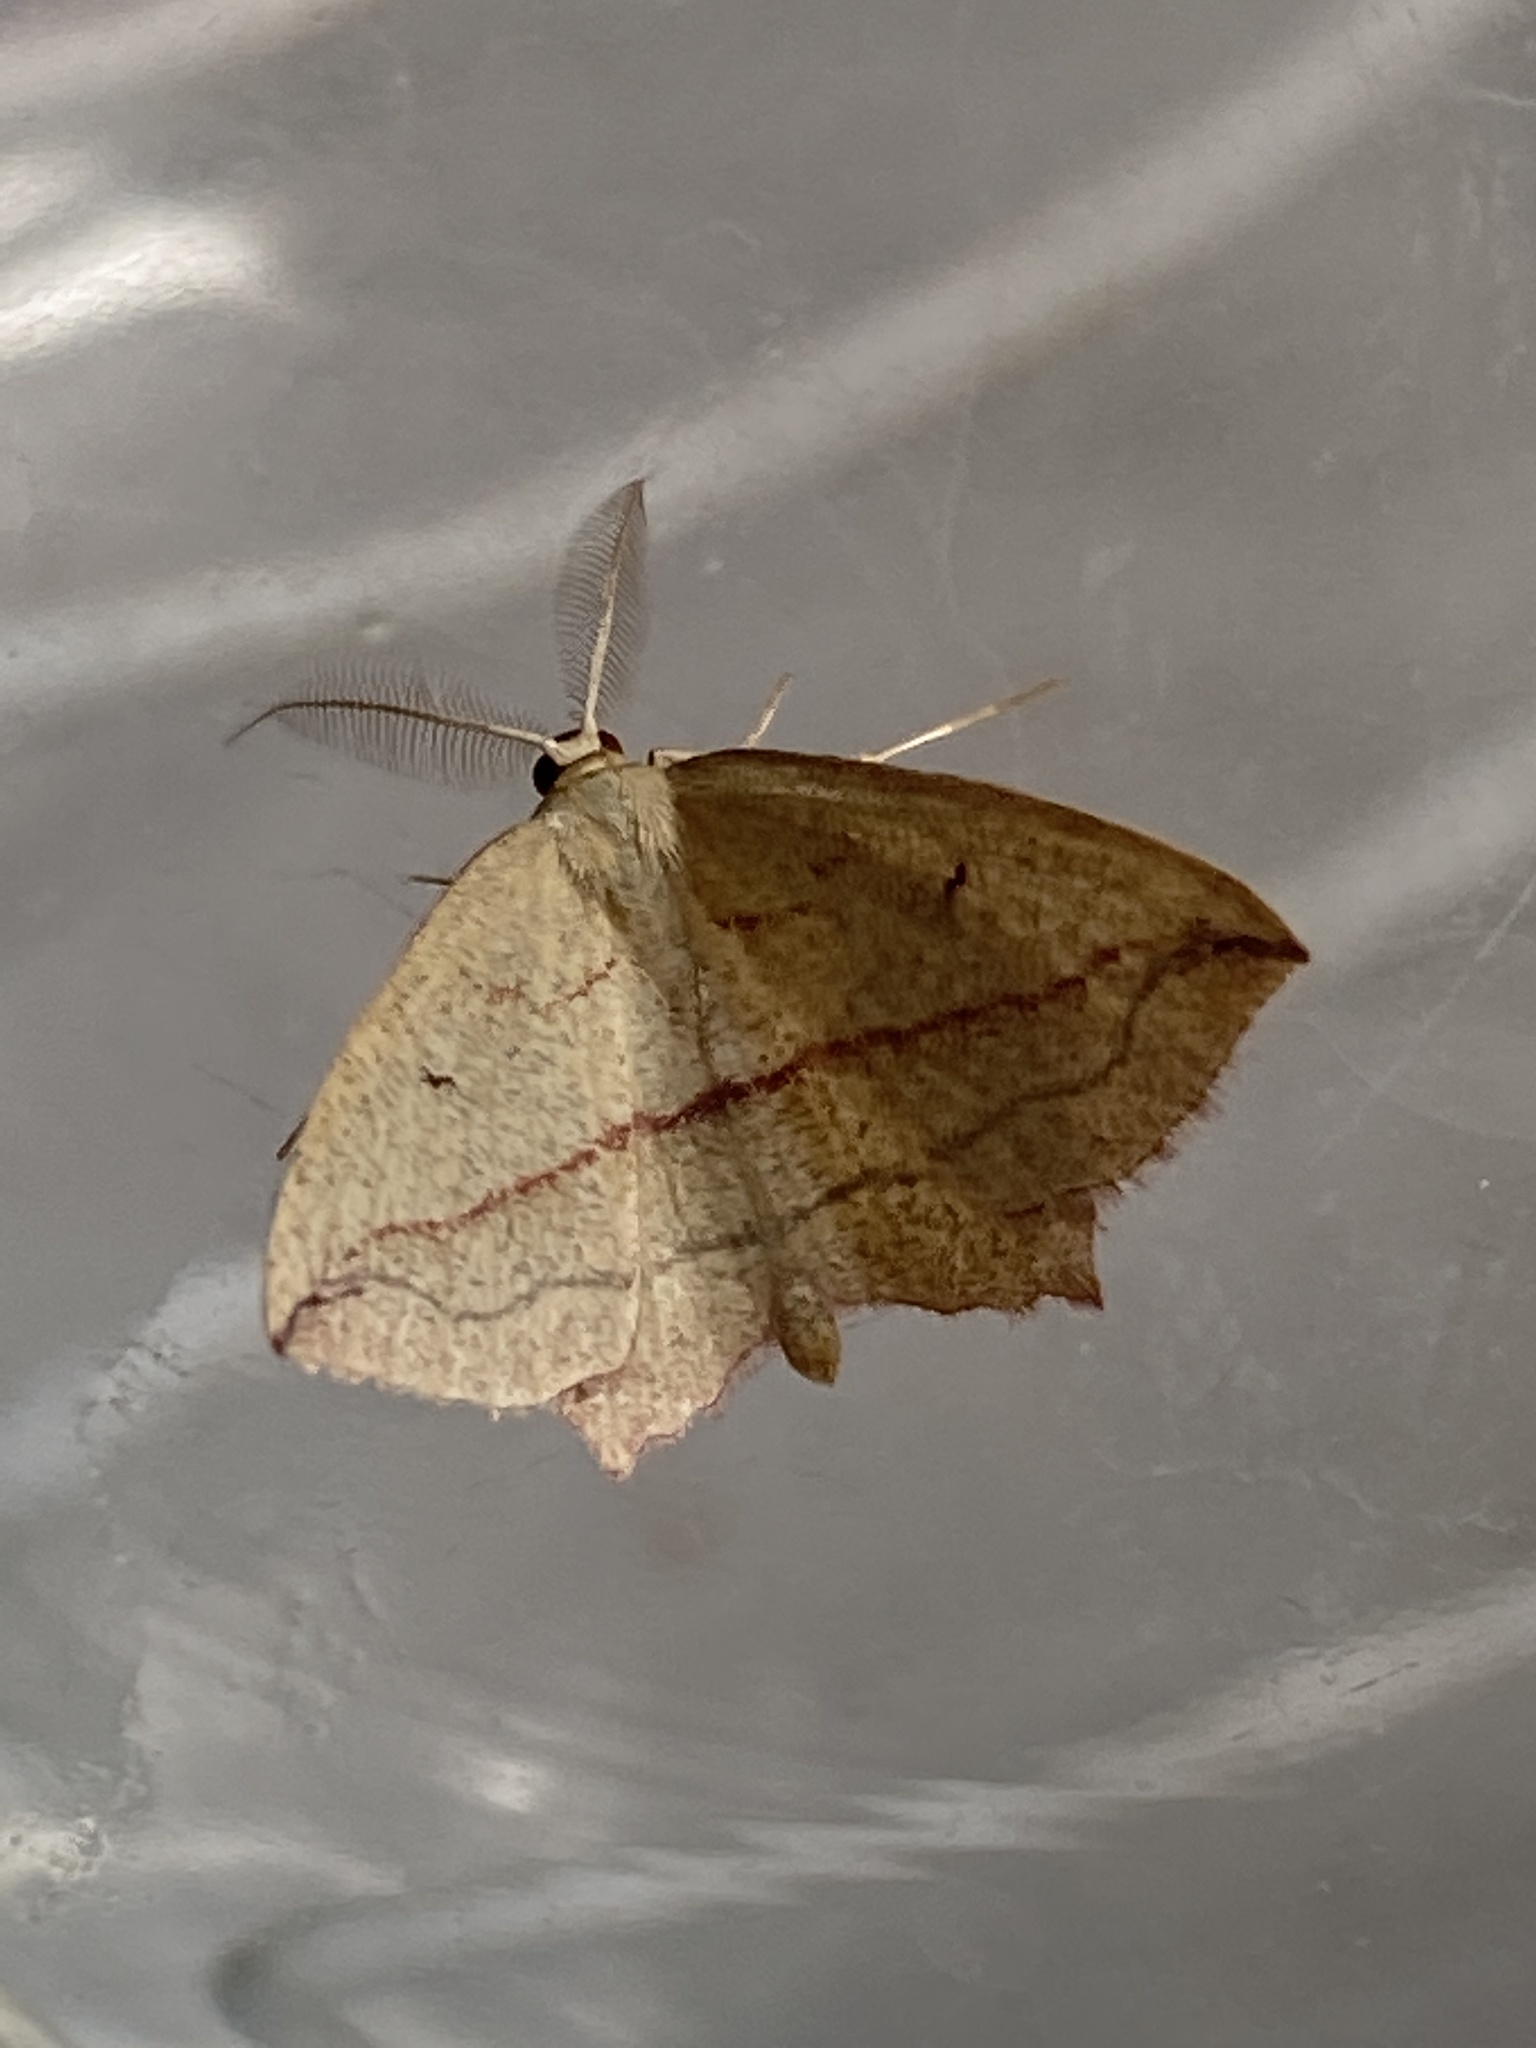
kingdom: Animalia
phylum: Arthropoda
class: Insecta
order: Lepidoptera
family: Geometridae
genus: Timandra
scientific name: Timandra comae
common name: Blood-vein
